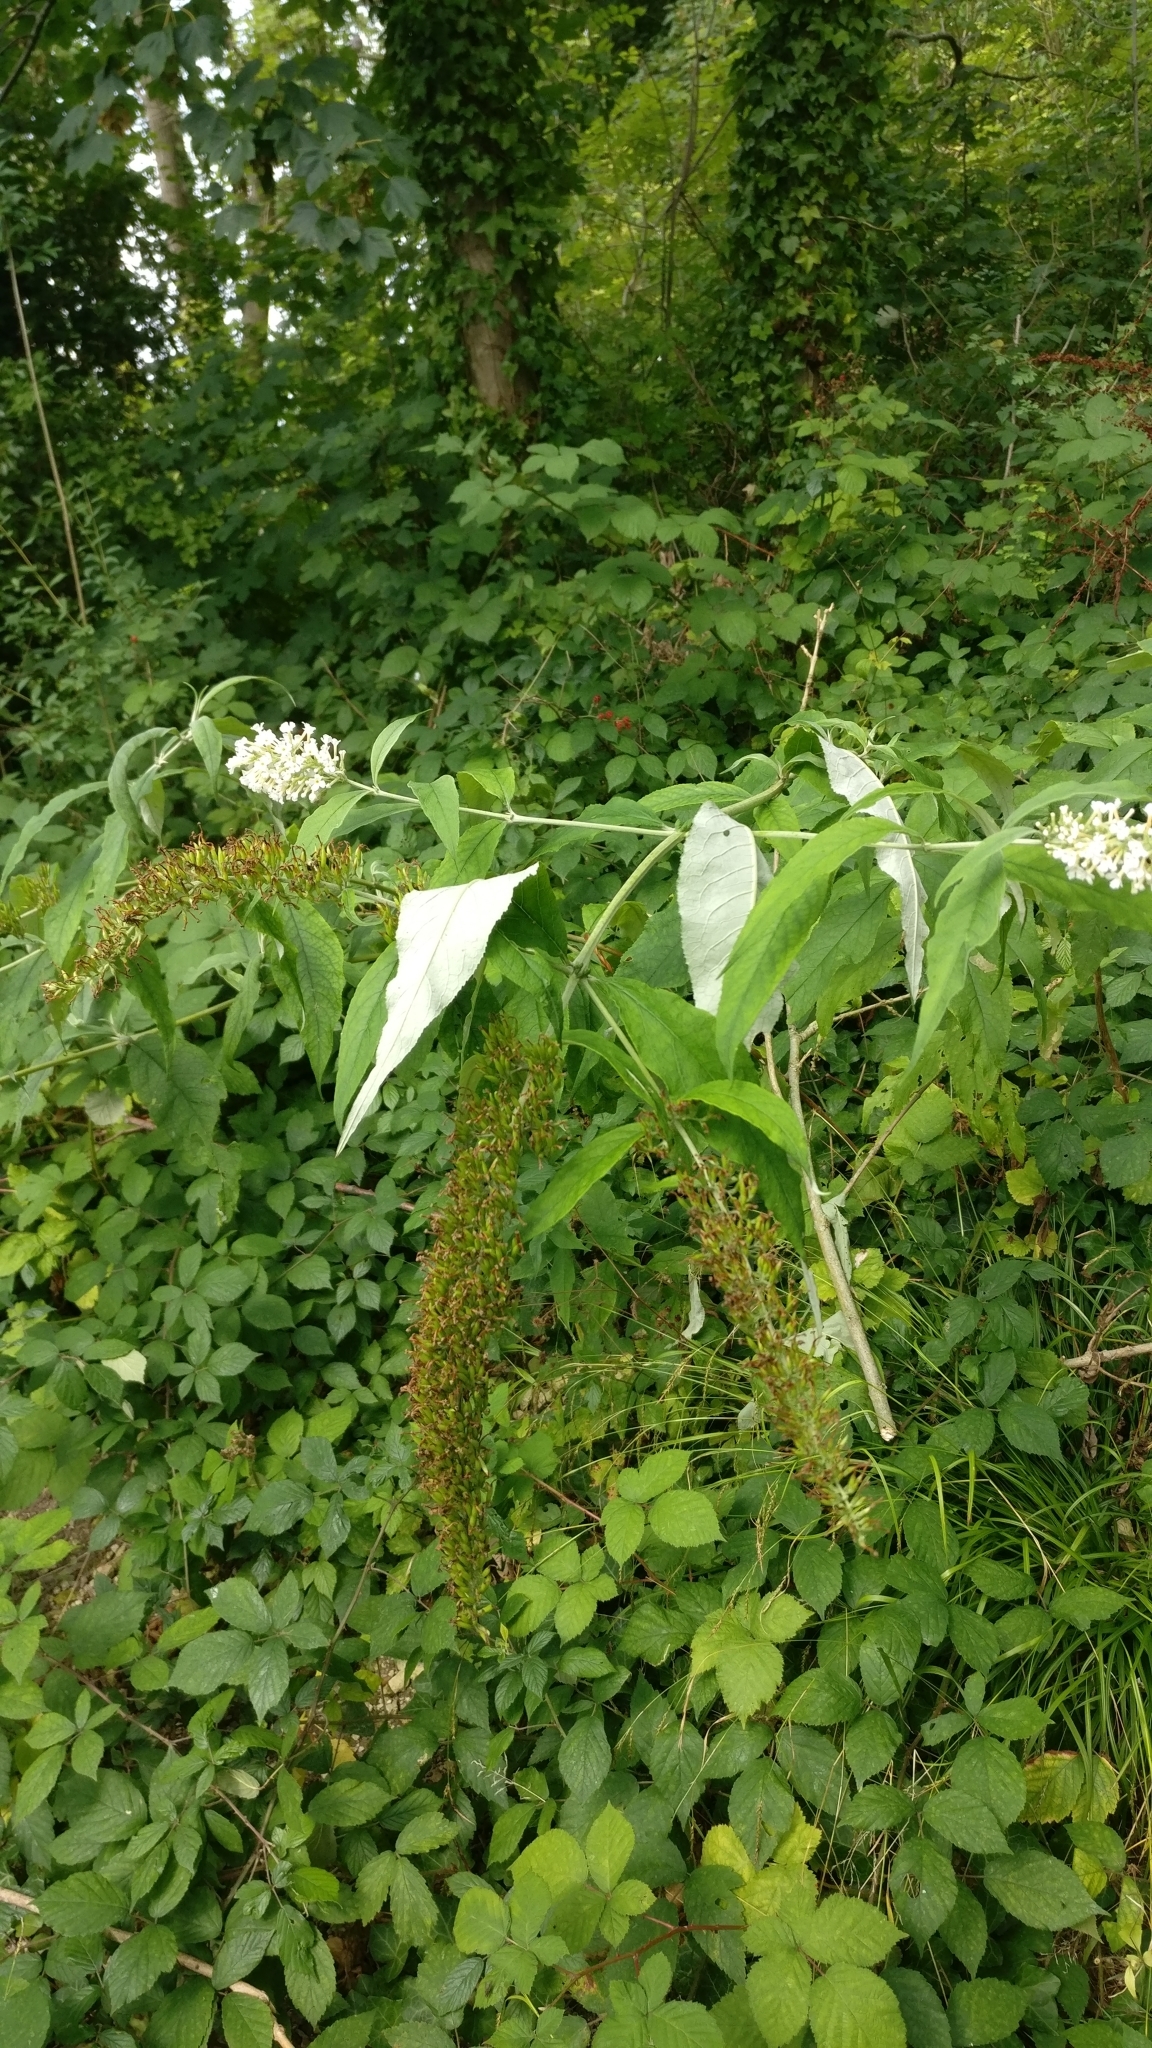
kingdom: Plantae
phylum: Tracheophyta
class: Magnoliopsida
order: Lamiales
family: Scrophulariaceae
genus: Buddleja
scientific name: Buddleja davidii
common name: Butterfly-bush
